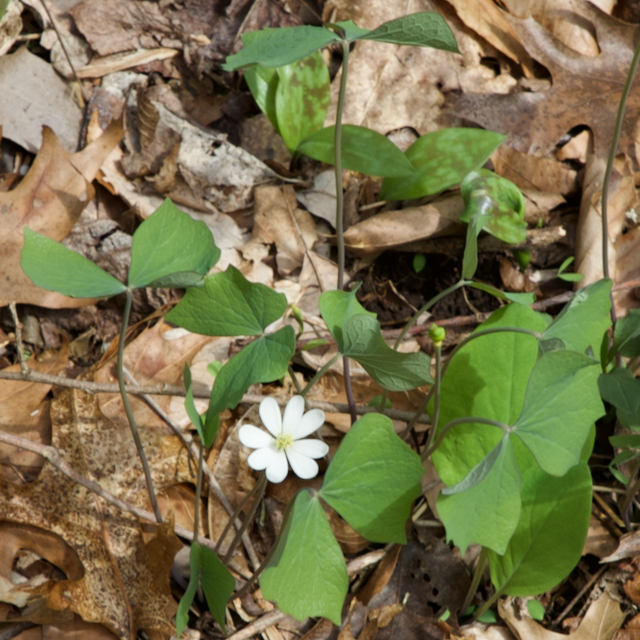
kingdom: Plantae
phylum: Tracheophyta
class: Magnoliopsida
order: Ranunculales
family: Berberidaceae
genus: Jeffersonia
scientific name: Jeffersonia diphylla
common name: Rheumatism-root
